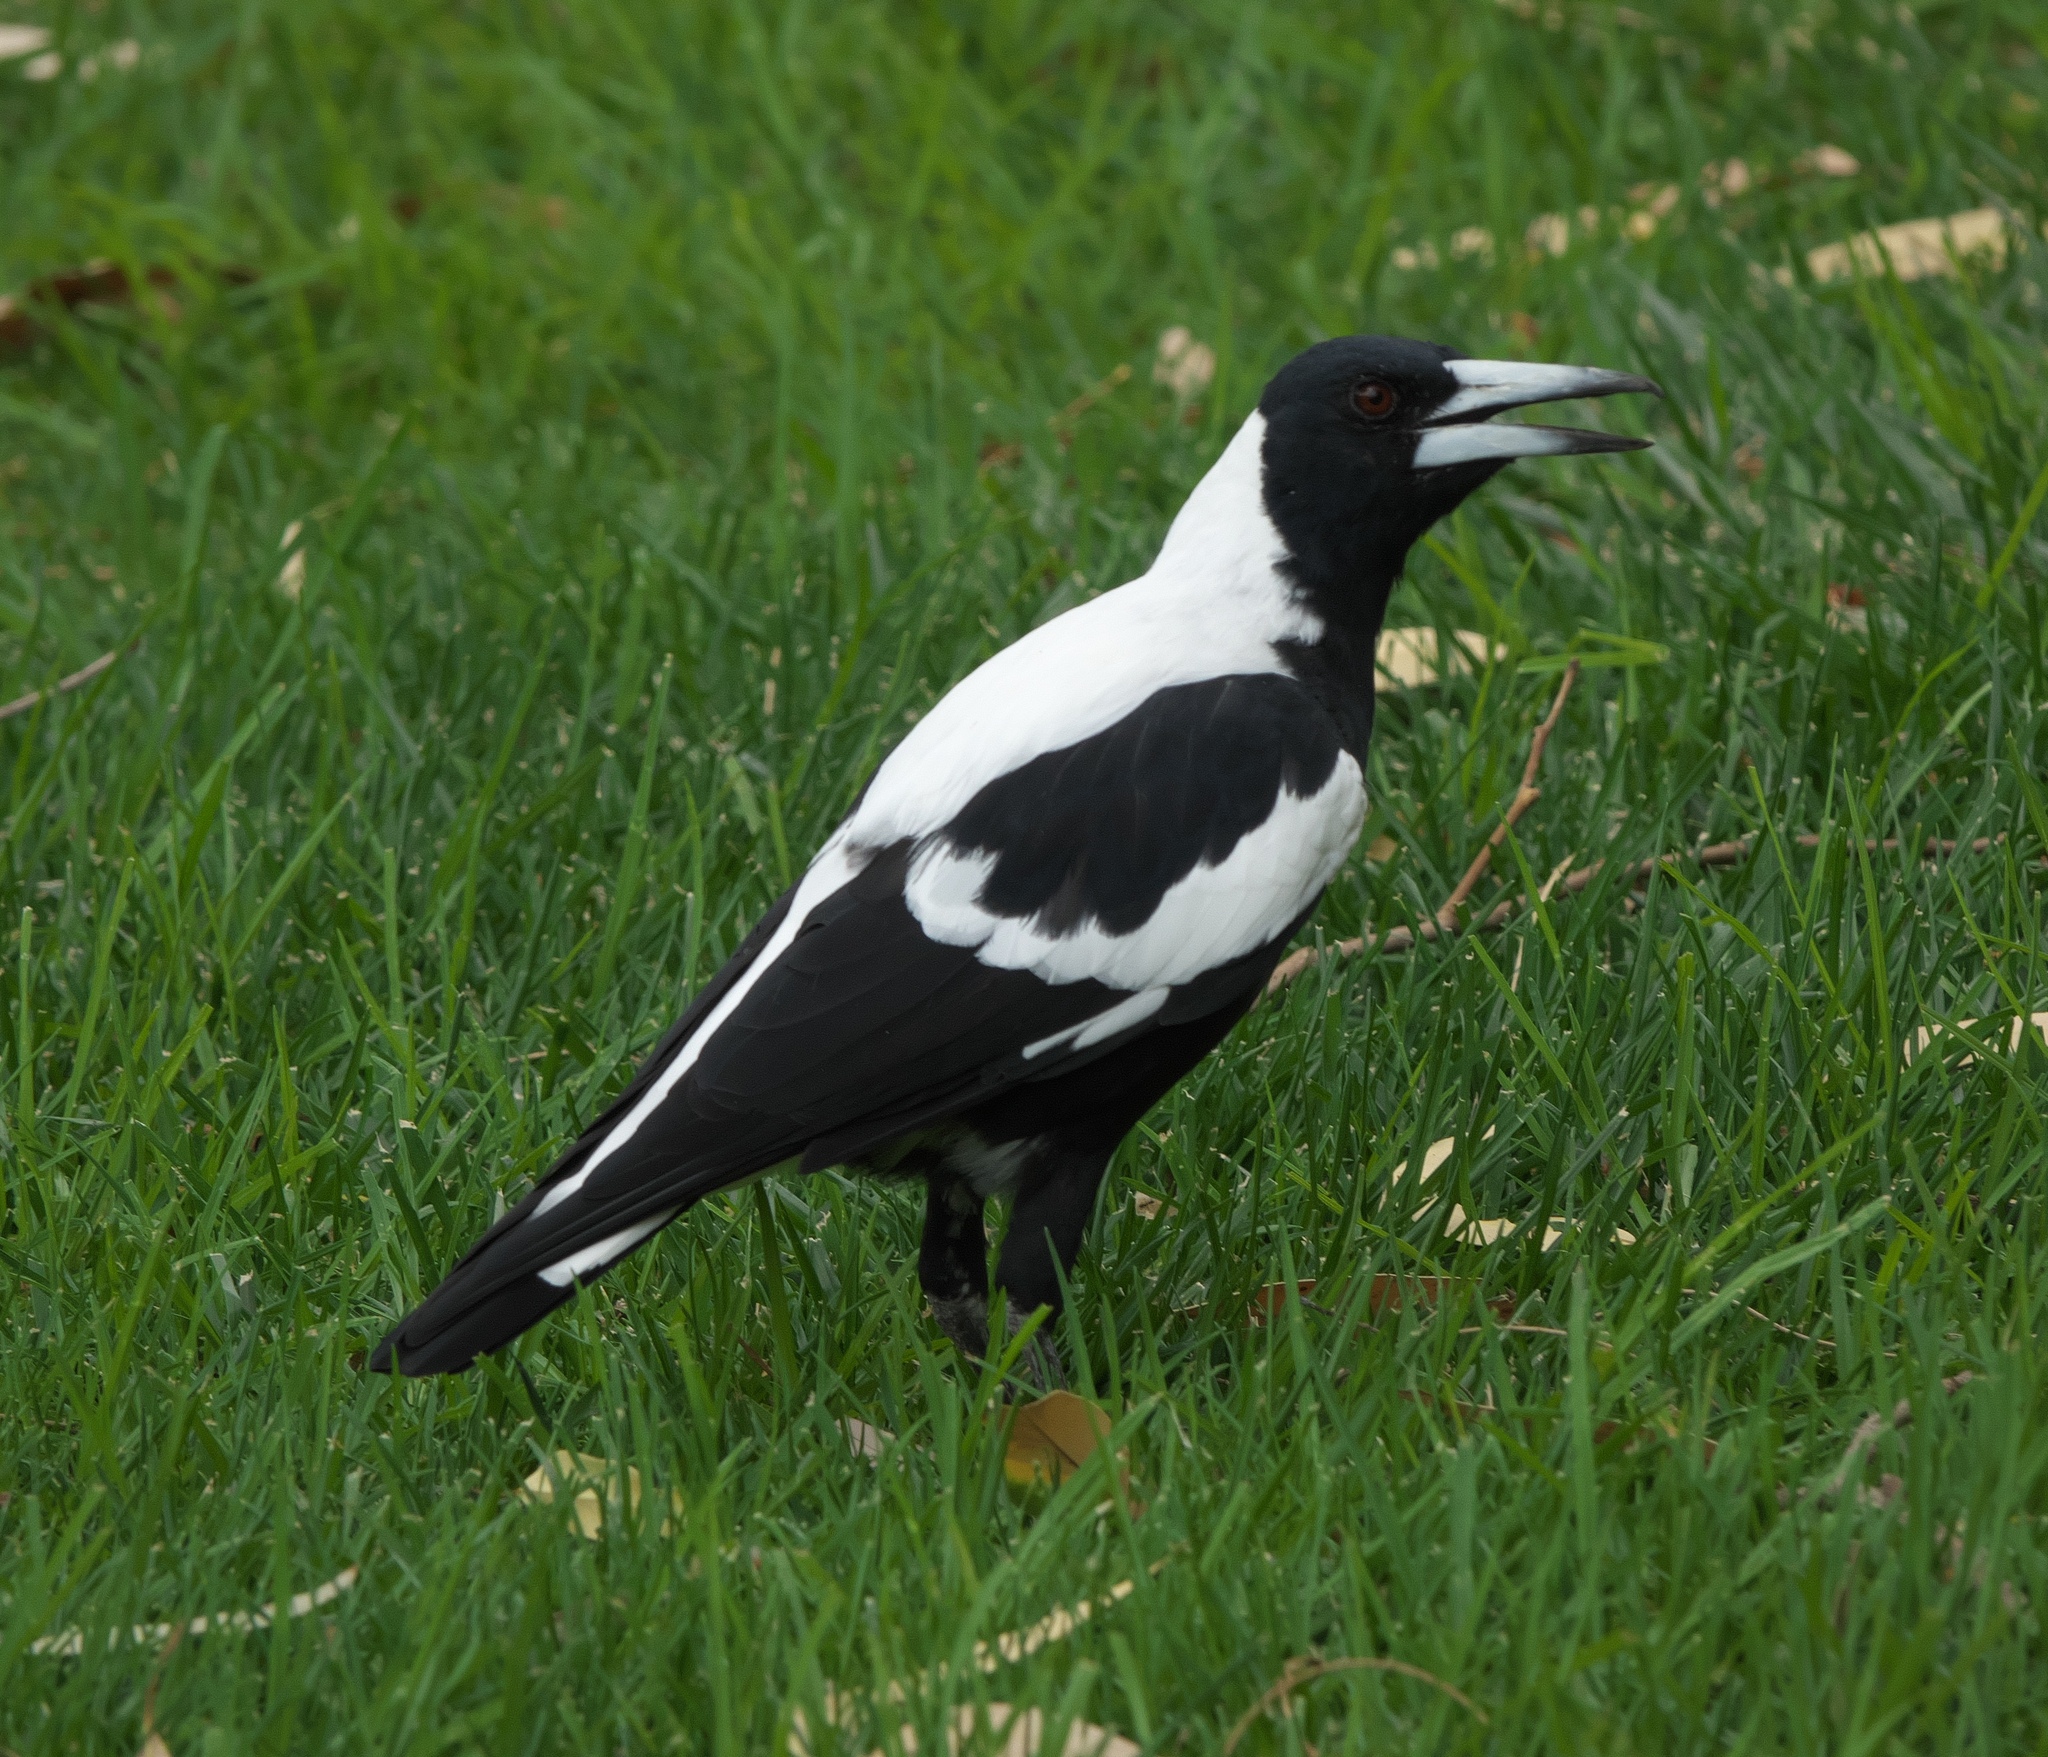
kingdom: Animalia
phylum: Chordata
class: Aves
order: Passeriformes
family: Cracticidae
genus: Gymnorhina
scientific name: Gymnorhina tibicen
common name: Australian magpie
